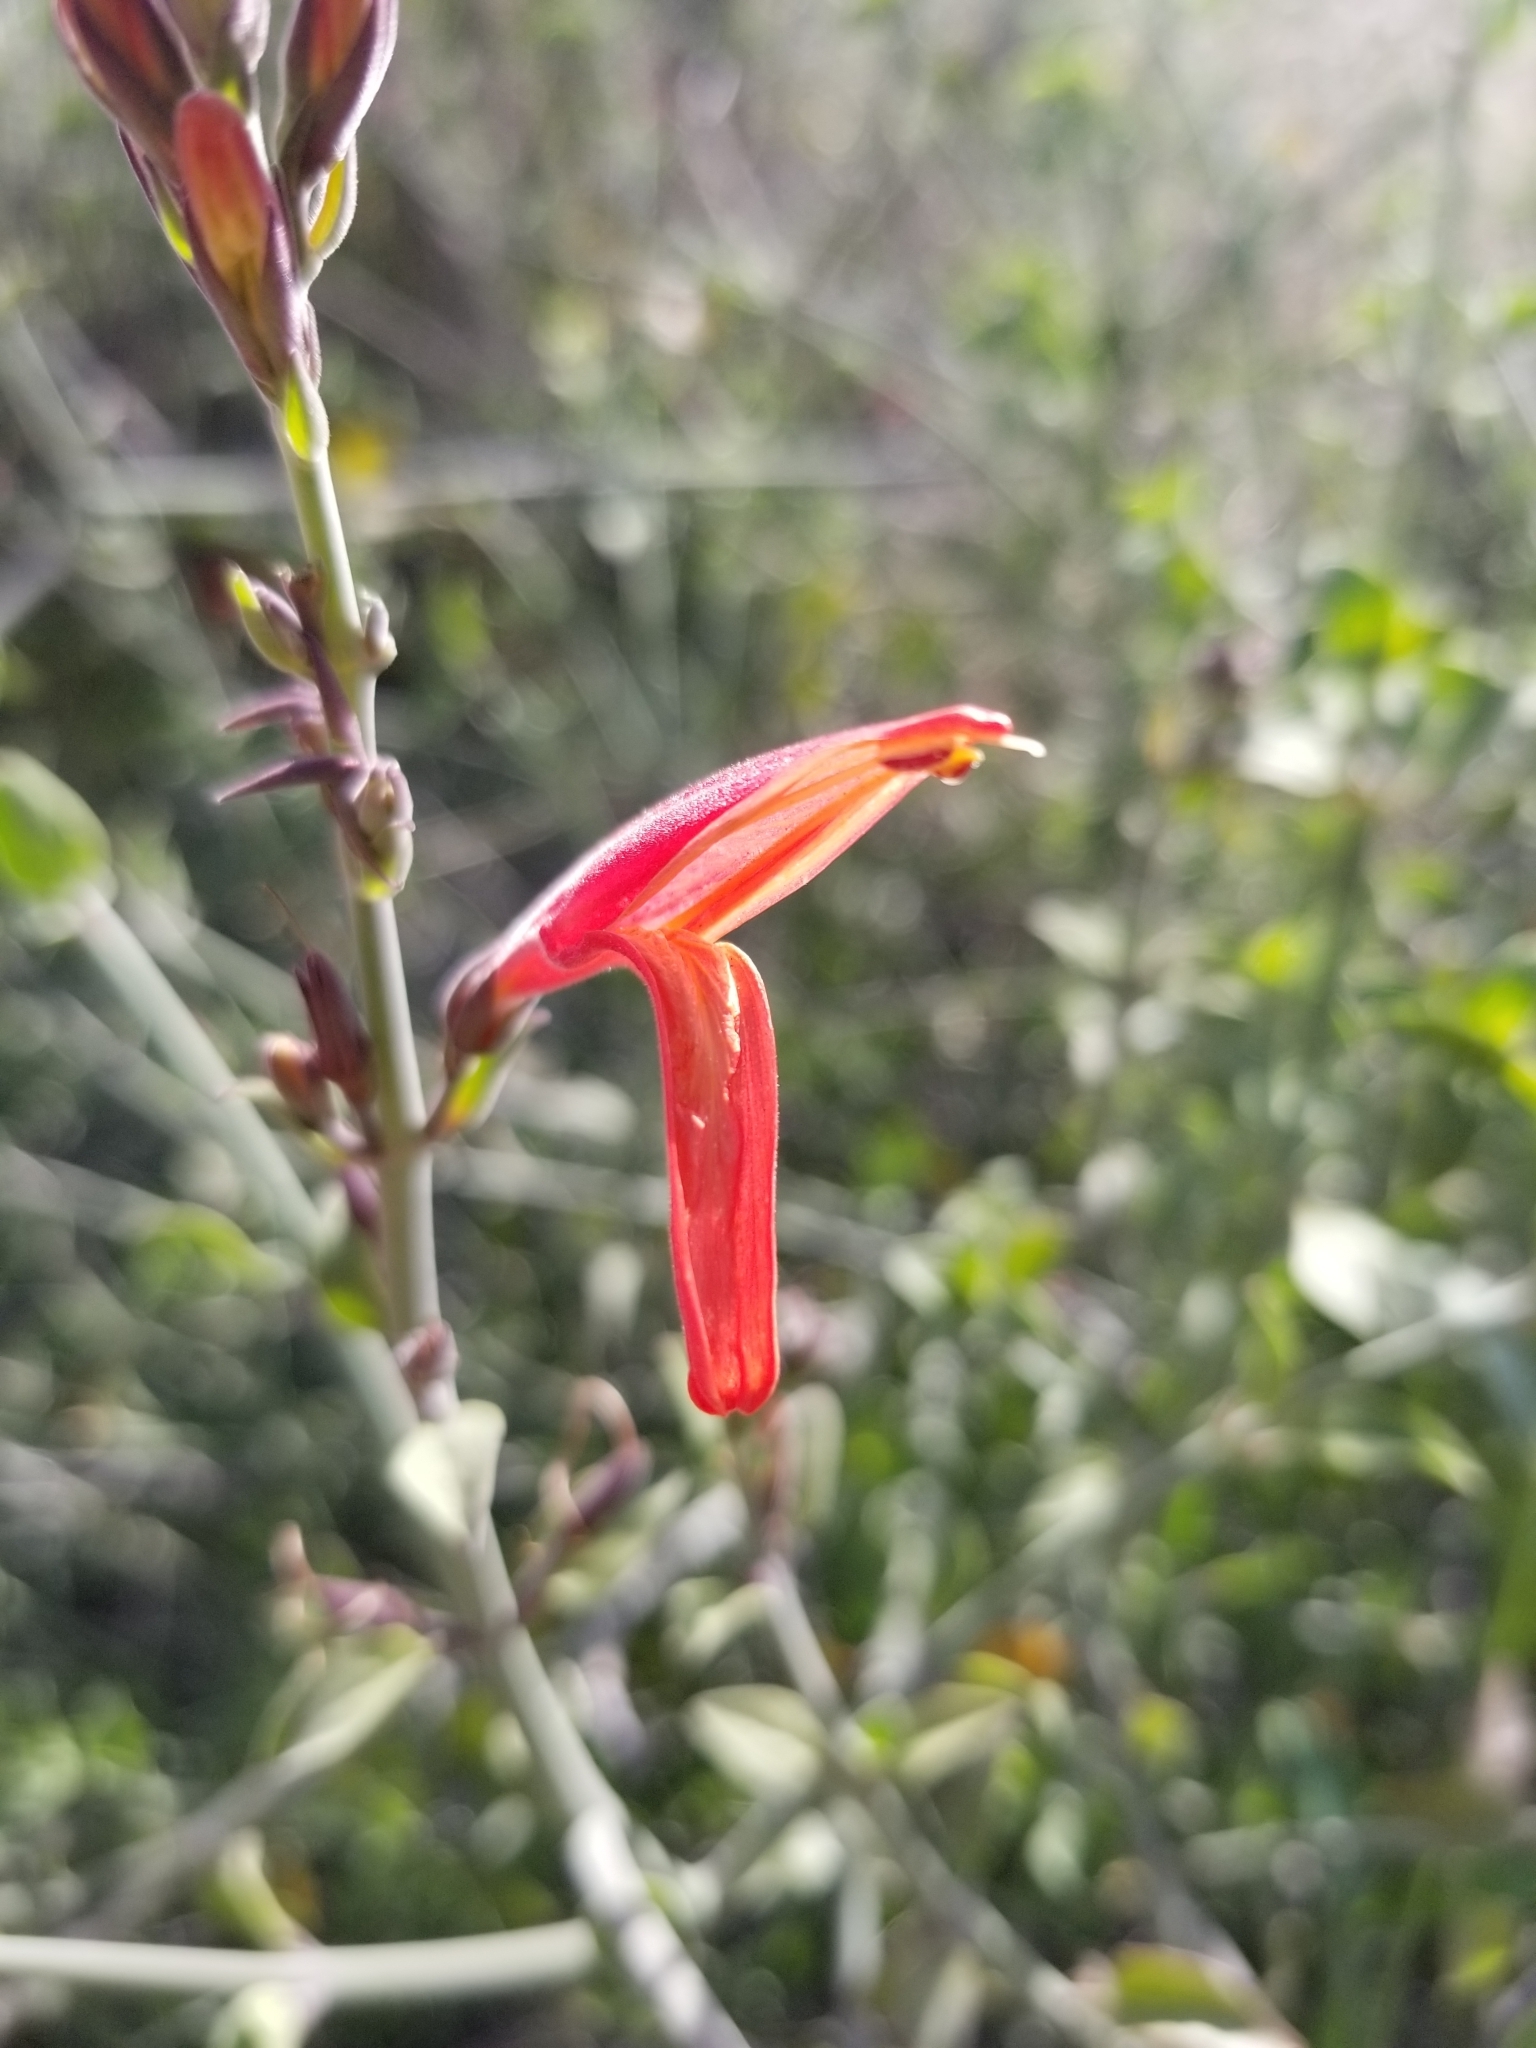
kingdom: Plantae
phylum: Tracheophyta
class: Magnoliopsida
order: Lamiales
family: Acanthaceae
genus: Justicia
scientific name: Justicia californica
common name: Chuparosa-honeysuckle
